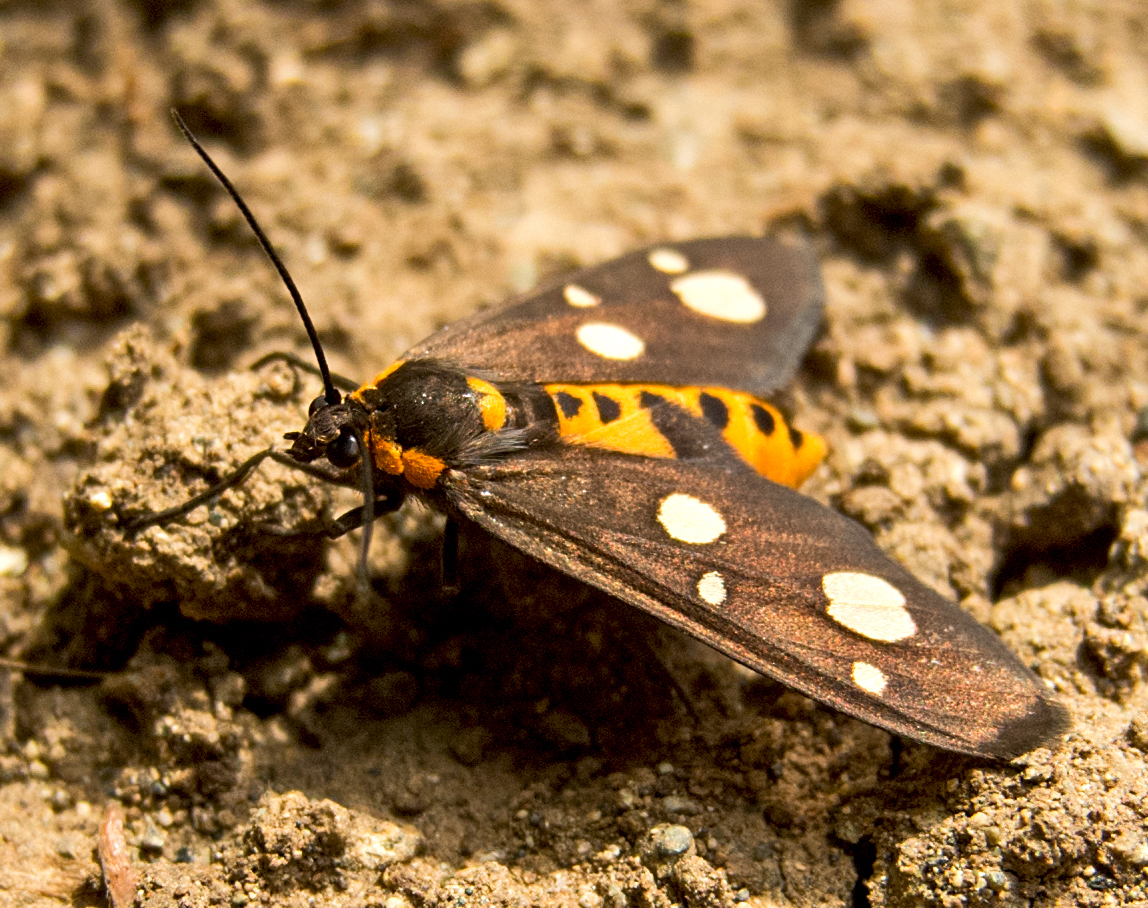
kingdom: Animalia
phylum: Arthropoda
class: Insecta
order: Lepidoptera
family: Erebidae
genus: Dysauxes
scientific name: Dysauxes punctata
